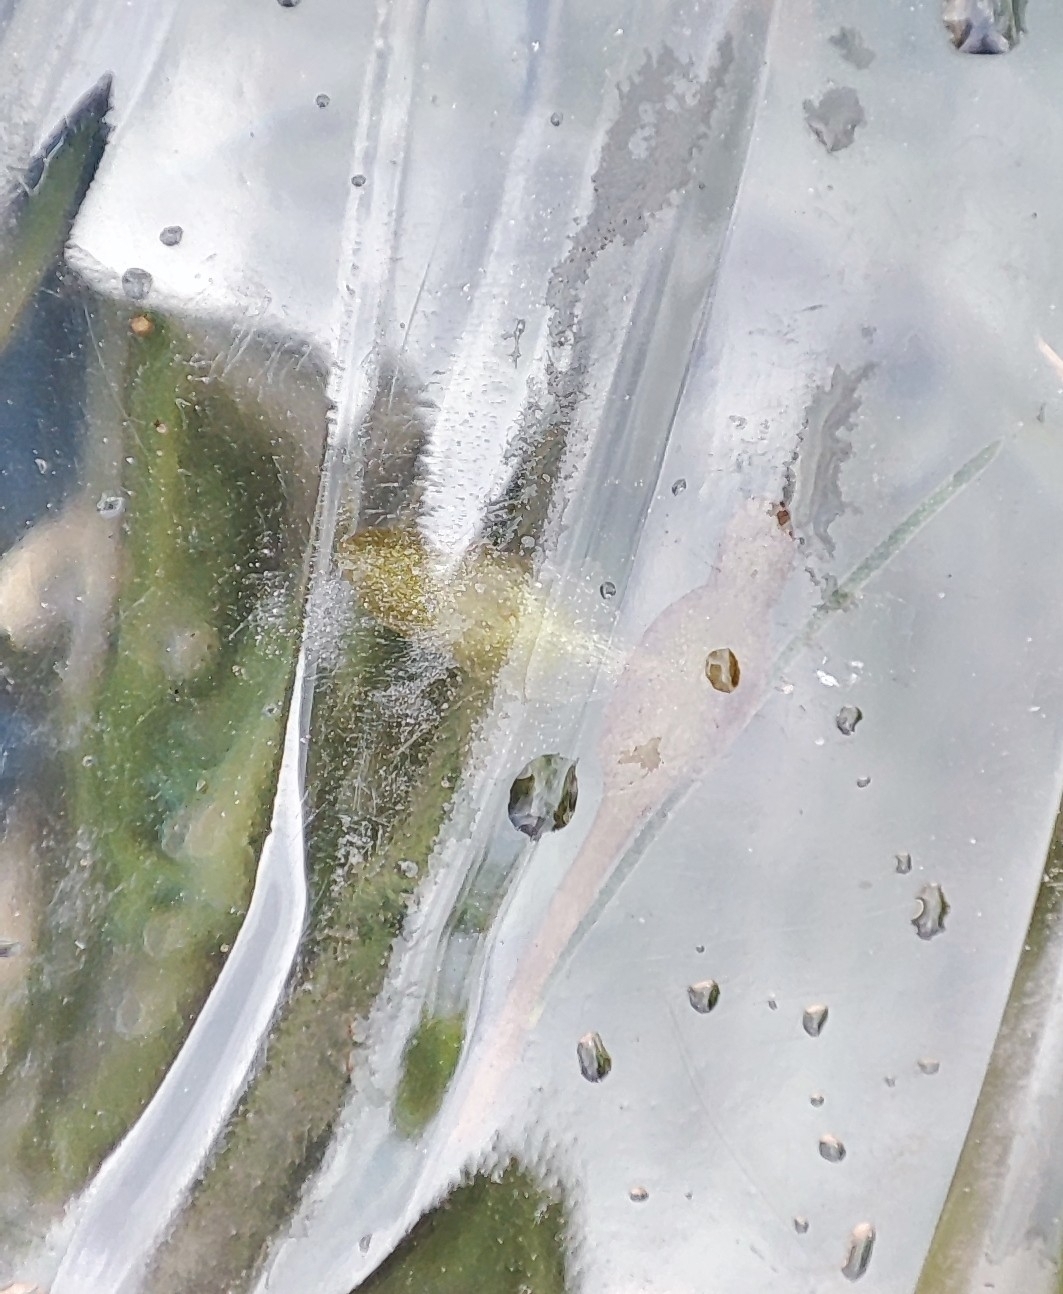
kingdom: Plantae
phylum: Tracheophyta
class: Liliopsida
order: Alismatales
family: Araceae
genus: Lemna
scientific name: Lemna trisulca
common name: Ivy-leaved duckweed
